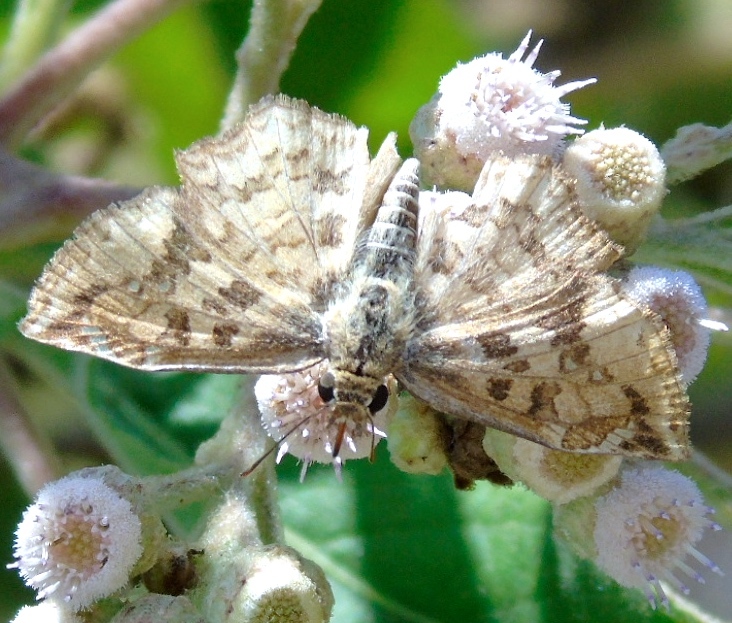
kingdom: Animalia
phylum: Arthropoda
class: Insecta
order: Lepidoptera
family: Hesperiidae
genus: Antigonus
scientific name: Antigonus erosus
